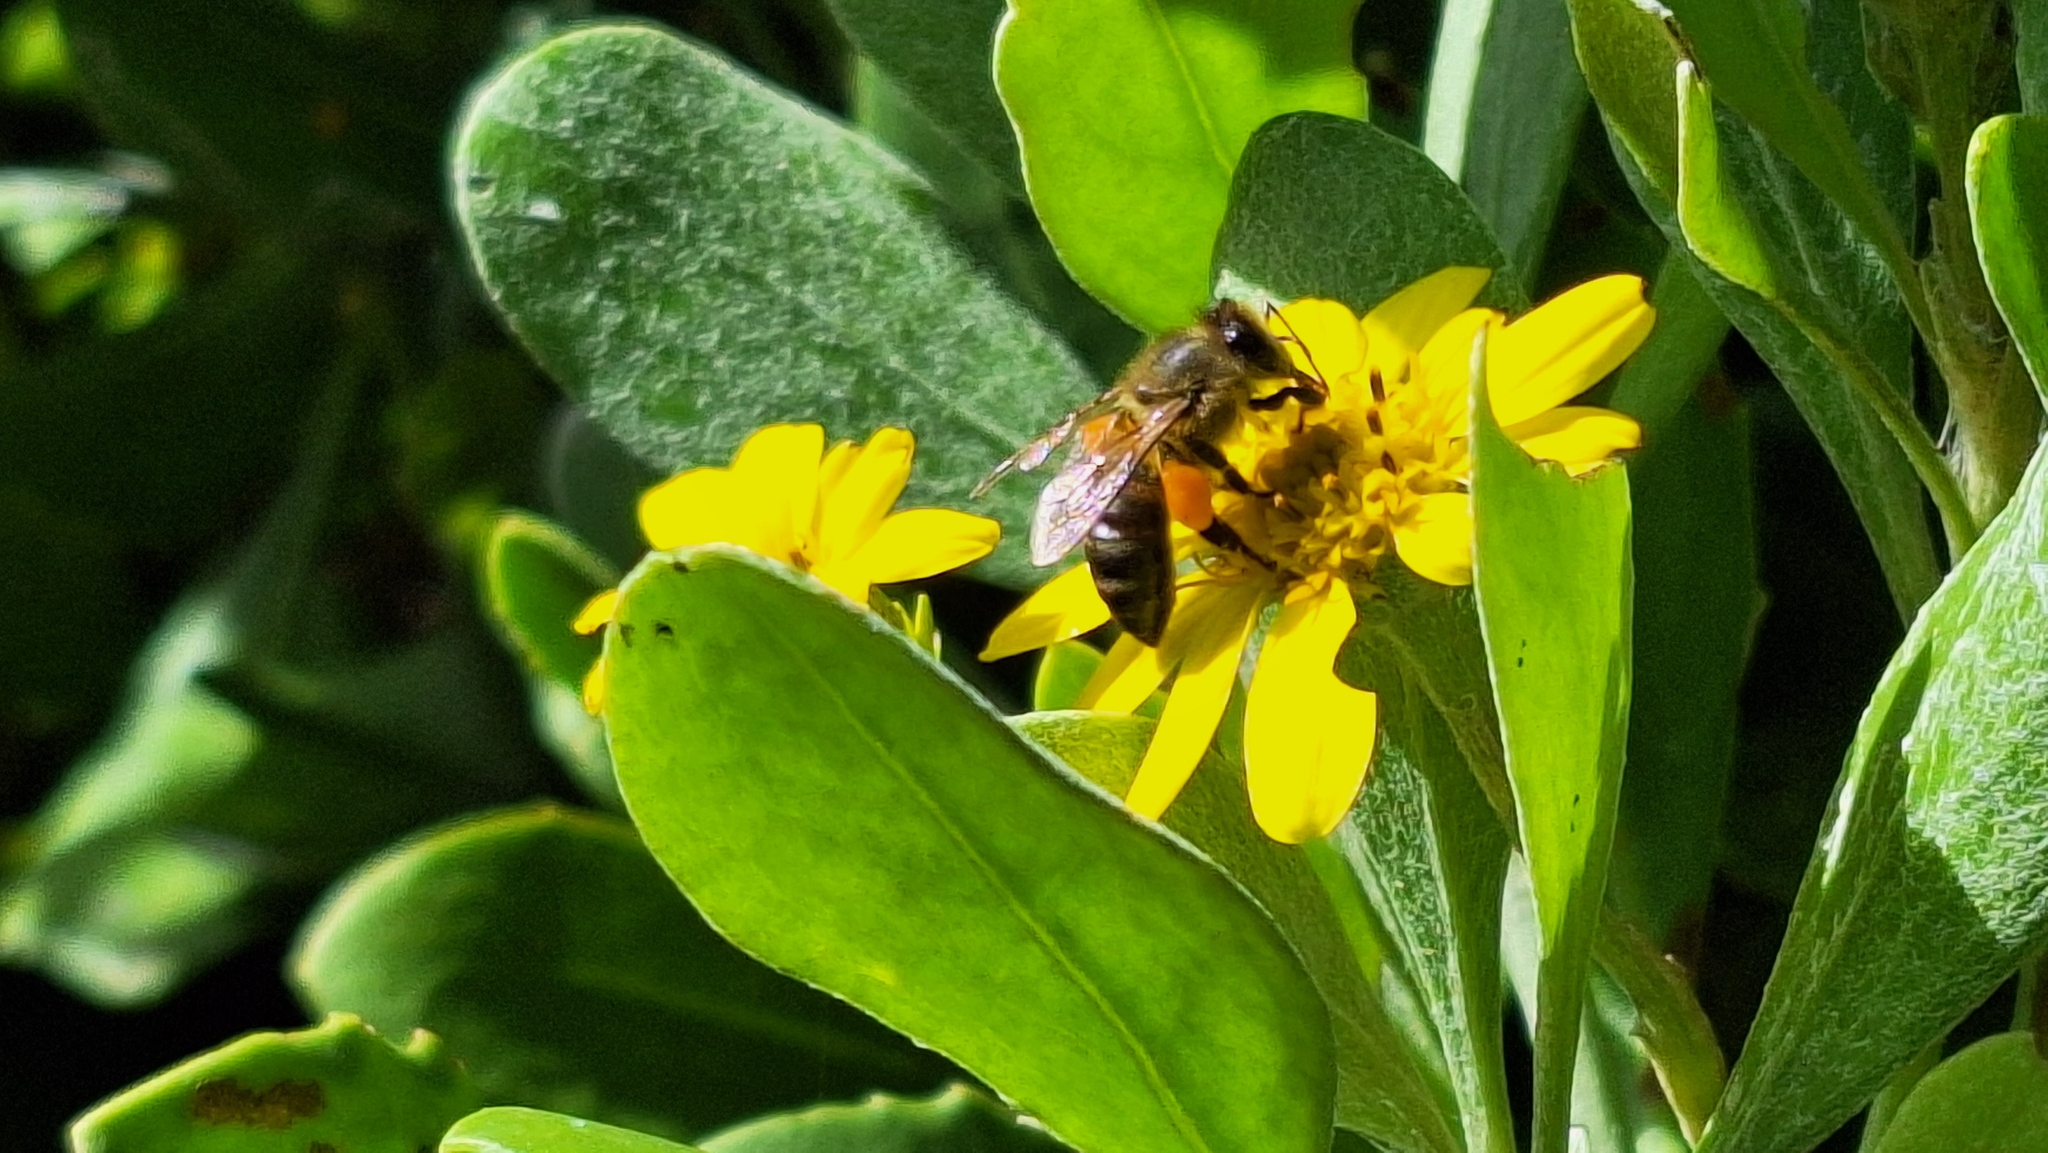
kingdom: Animalia
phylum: Arthropoda
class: Insecta
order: Hymenoptera
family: Apidae
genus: Apis
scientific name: Apis mellifera
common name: Honey bee
